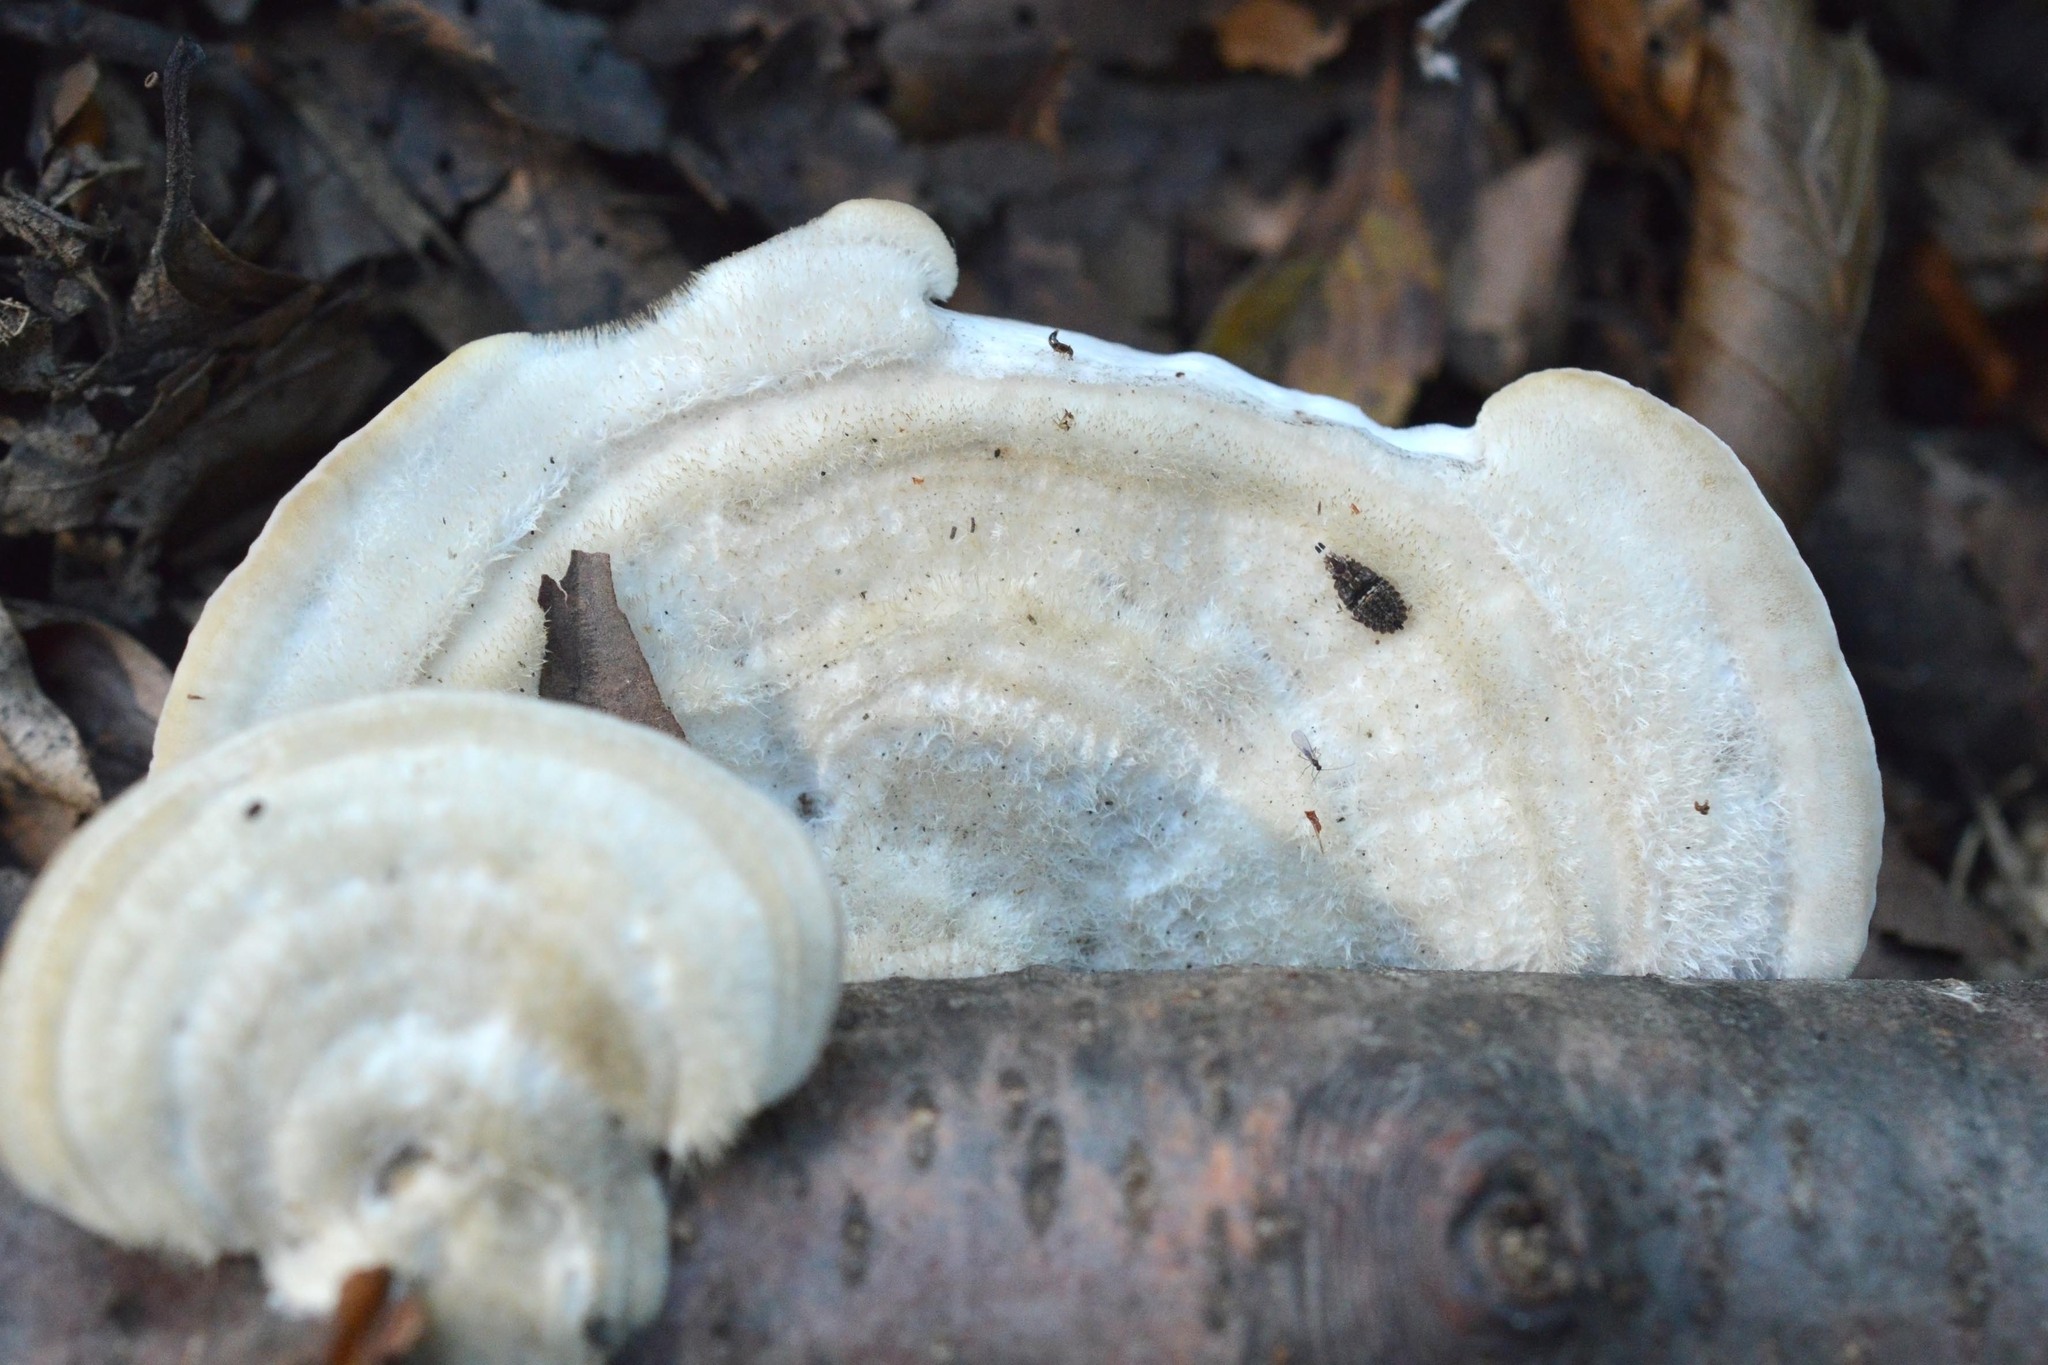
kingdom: Fungi
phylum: Basidiomycota
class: Agaricomycetes
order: Polyporales
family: Polyporaceae
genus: Trametes
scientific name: Trametes hirsuta
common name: Hairy bracket
